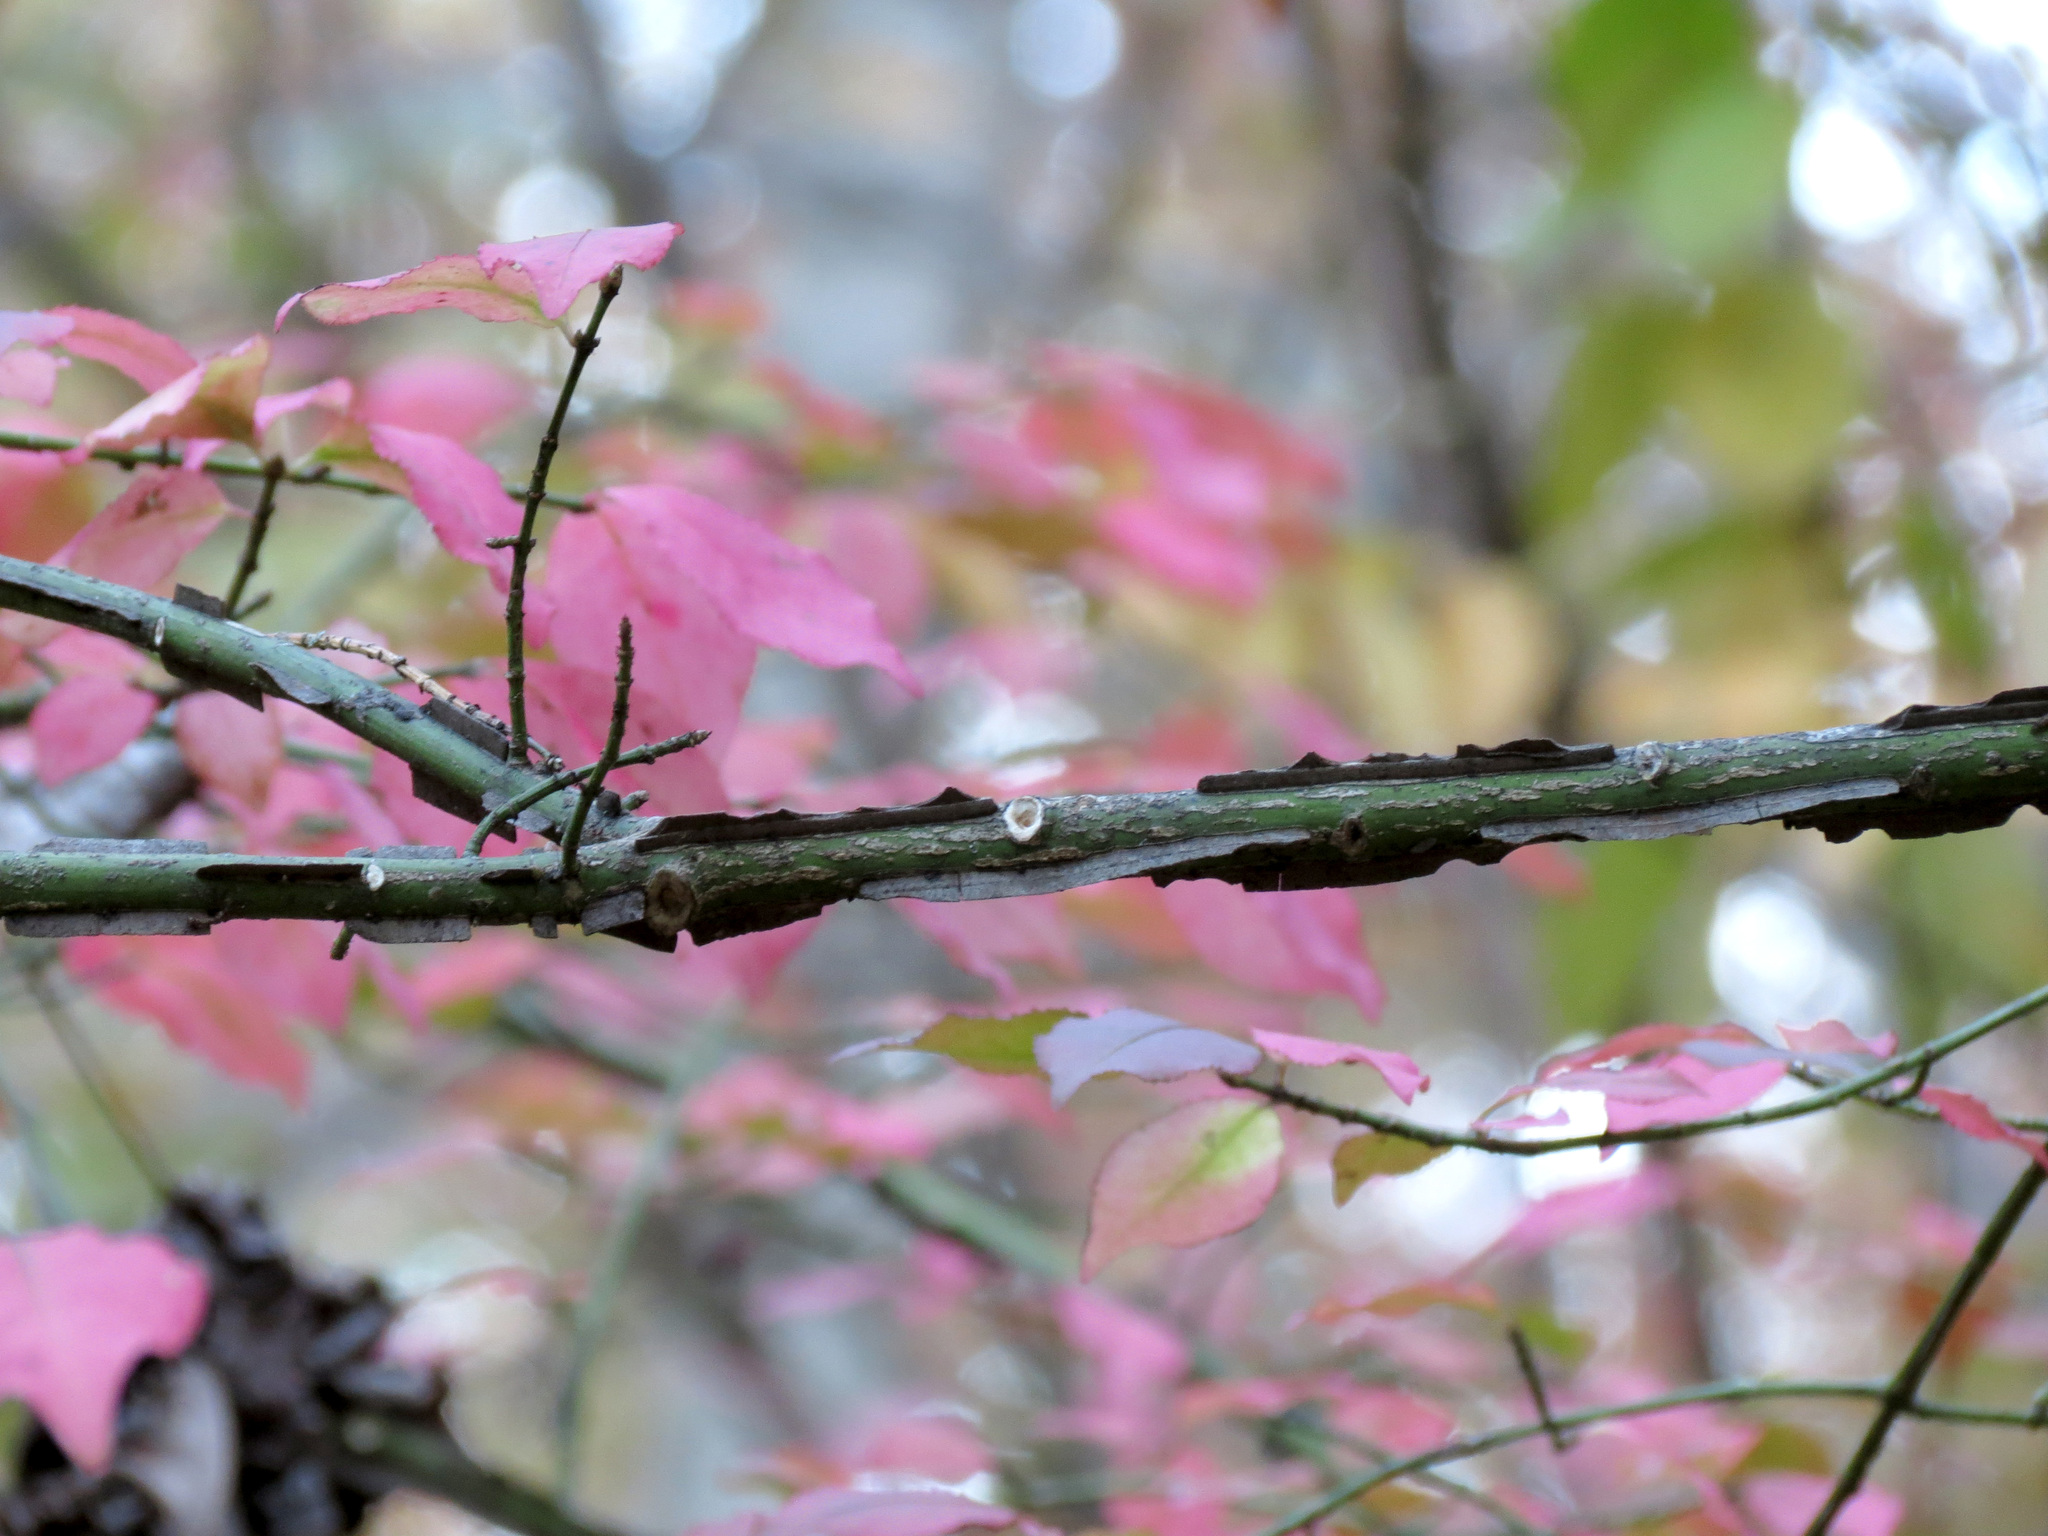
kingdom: Plantae
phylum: Tracheophyta
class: Magnoliopsida
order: Celastrales
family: Celastraceae
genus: Euonymus
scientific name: Euonymus alatus
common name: Winged euonymus
